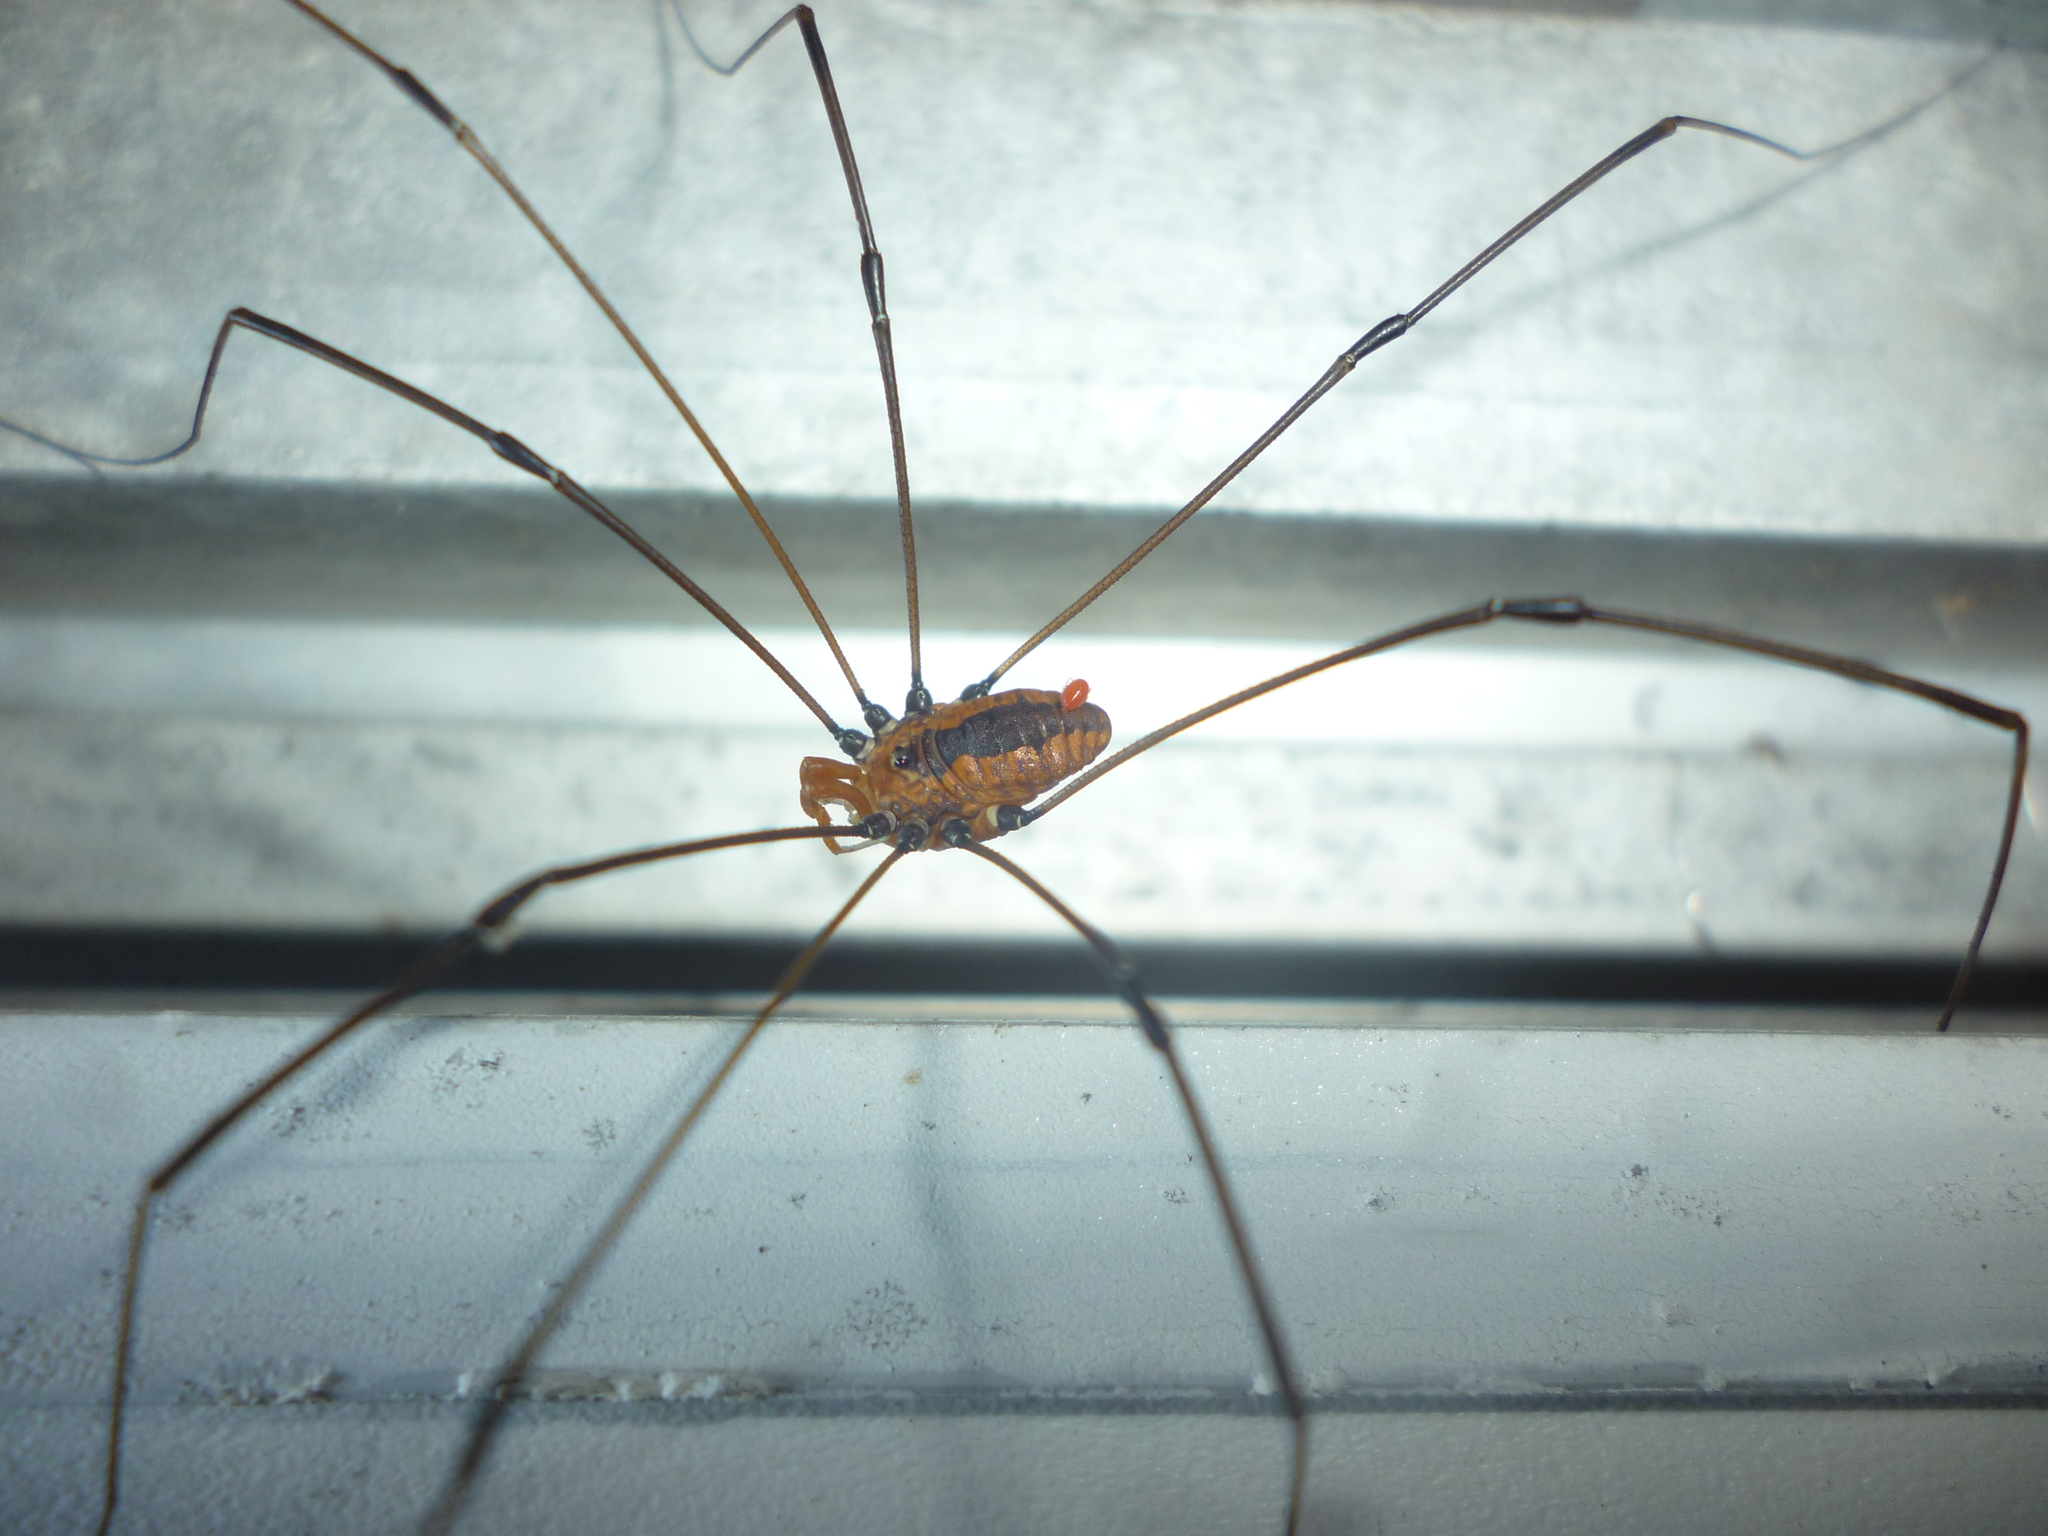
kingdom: Animalia
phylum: Arthropoda
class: Arachnida
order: Opiliones
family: Sclerosomatidae
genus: Leiobunum
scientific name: Leiobunum vittatum
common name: Eastern harvestman
